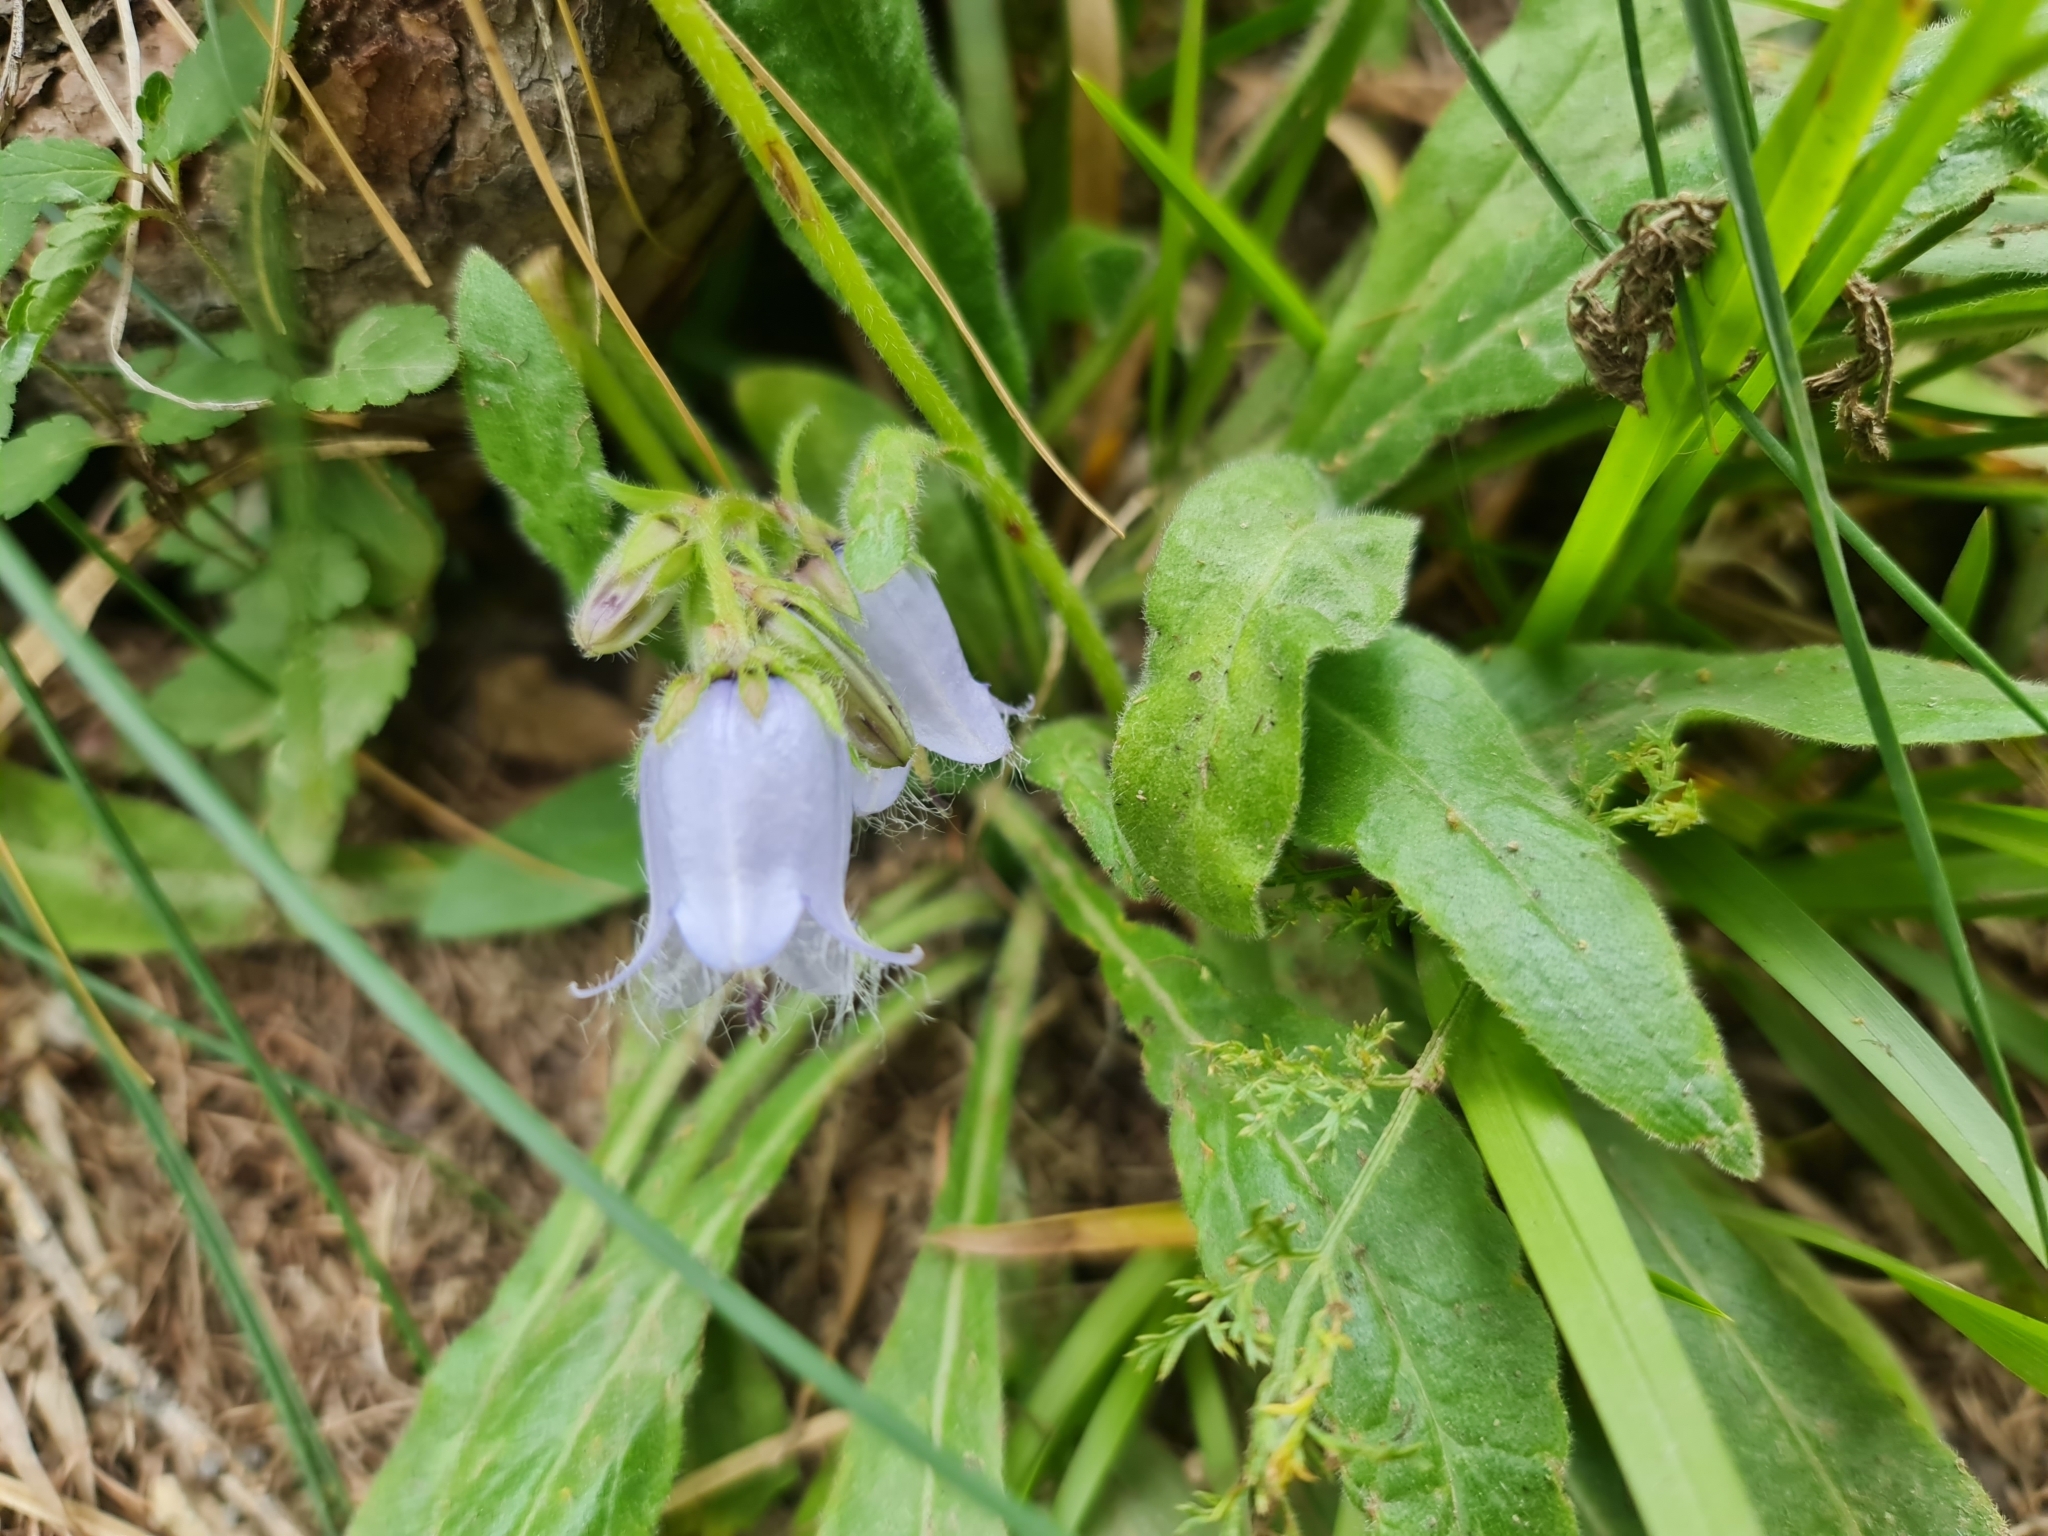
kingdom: Plantae
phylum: Tracheophyta
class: Magnoliopsida
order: Asterales
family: Campanulaceae
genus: Campanula
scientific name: Campanula barbata
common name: Bearded bellflower
